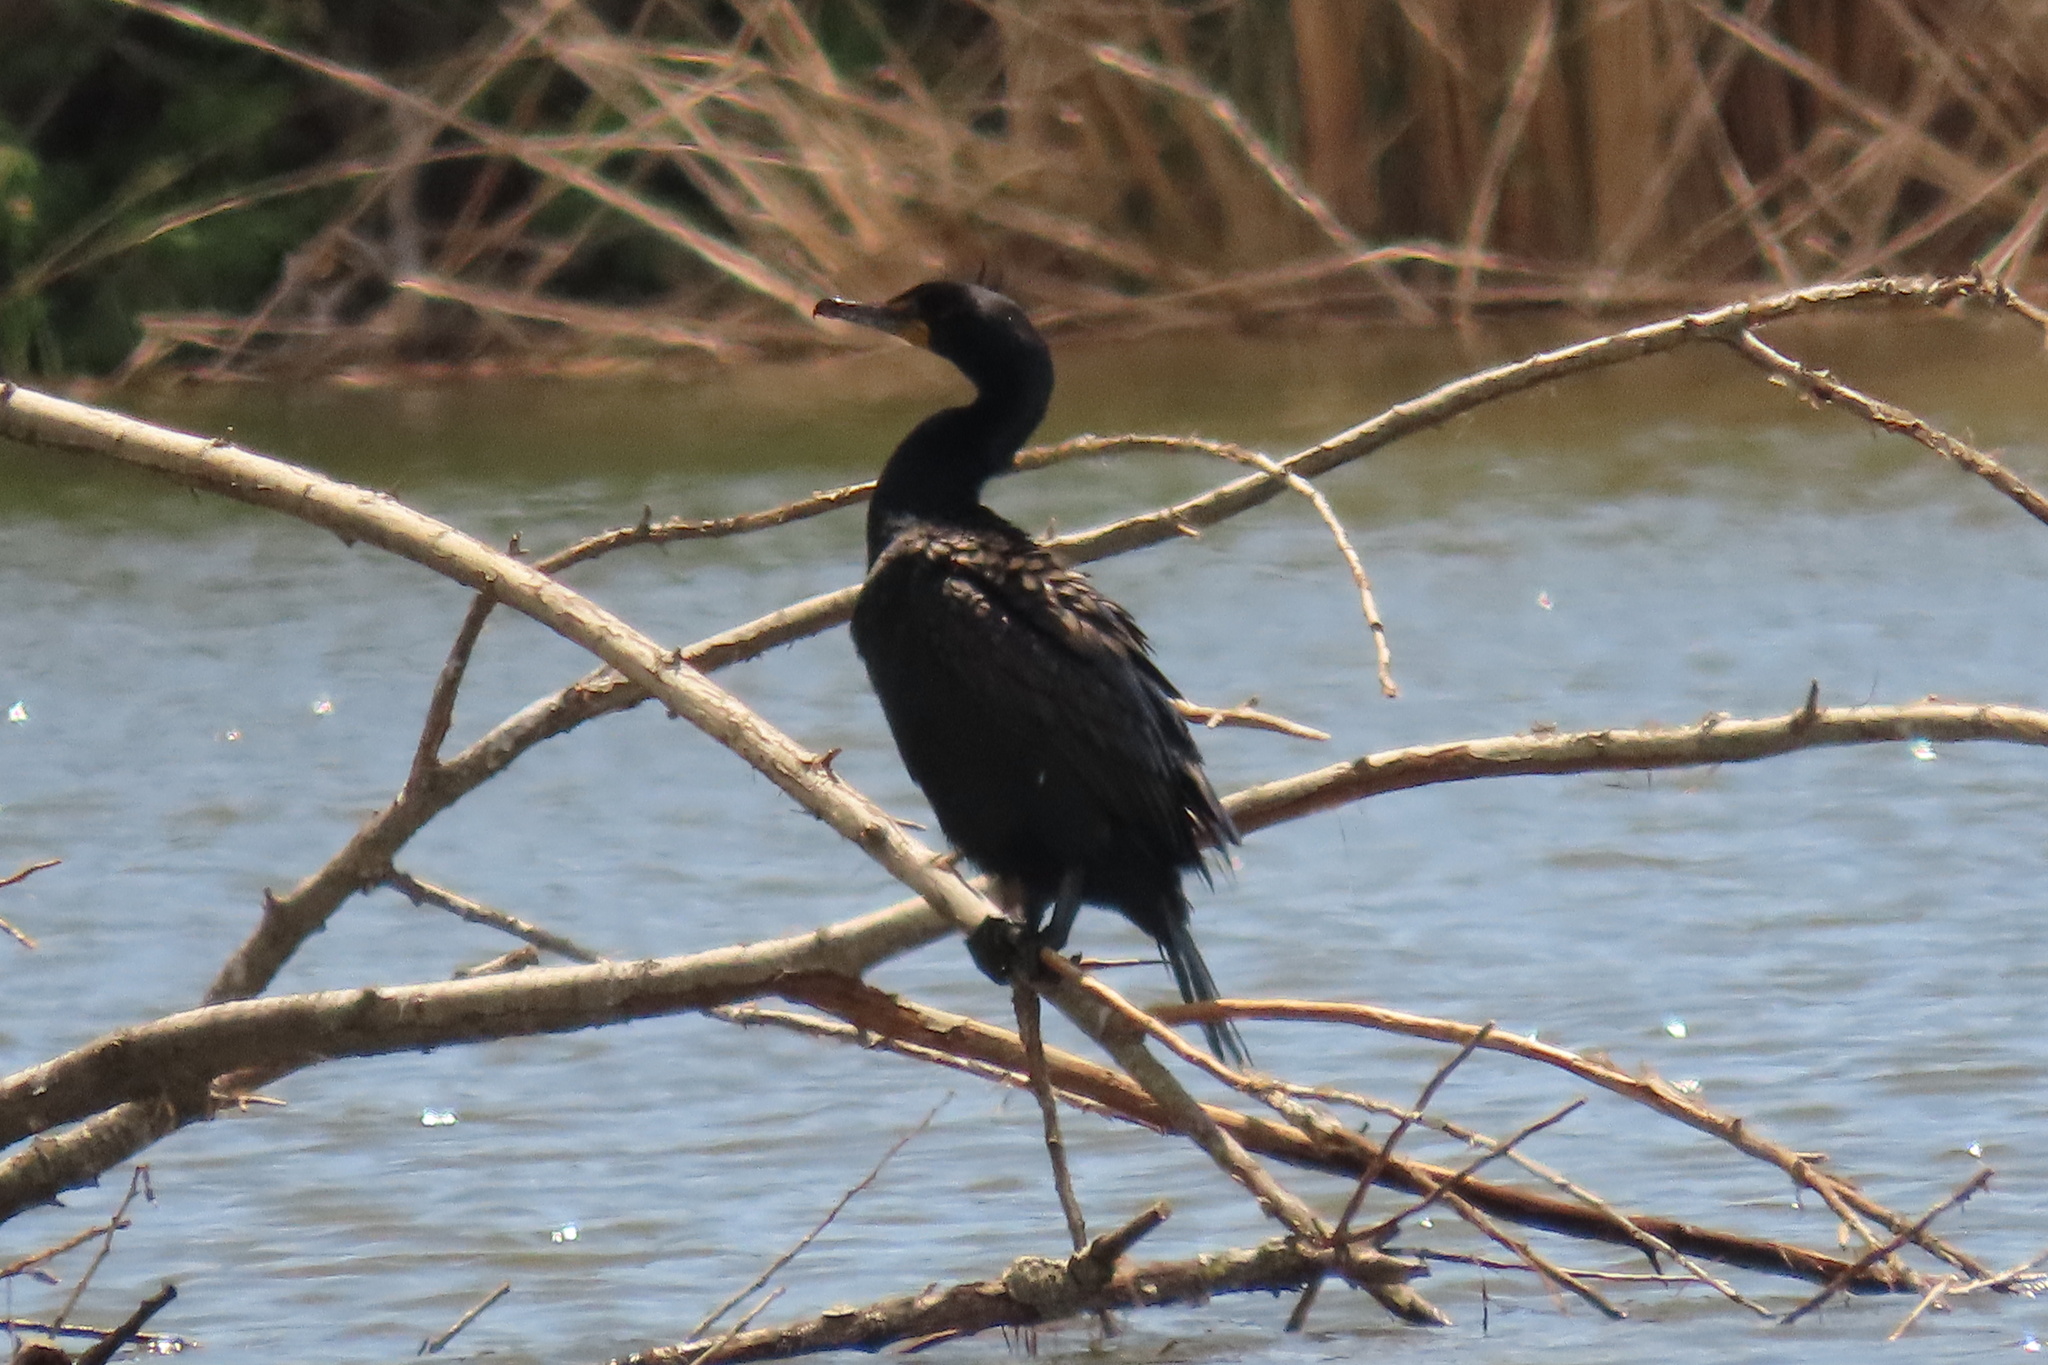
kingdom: Animalia
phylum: Chordata
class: Aves
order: Suliformes
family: Phalacrocoracidae
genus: Phalacrocorax
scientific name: Phalacrocorax auritus
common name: Double-crested cormorant
